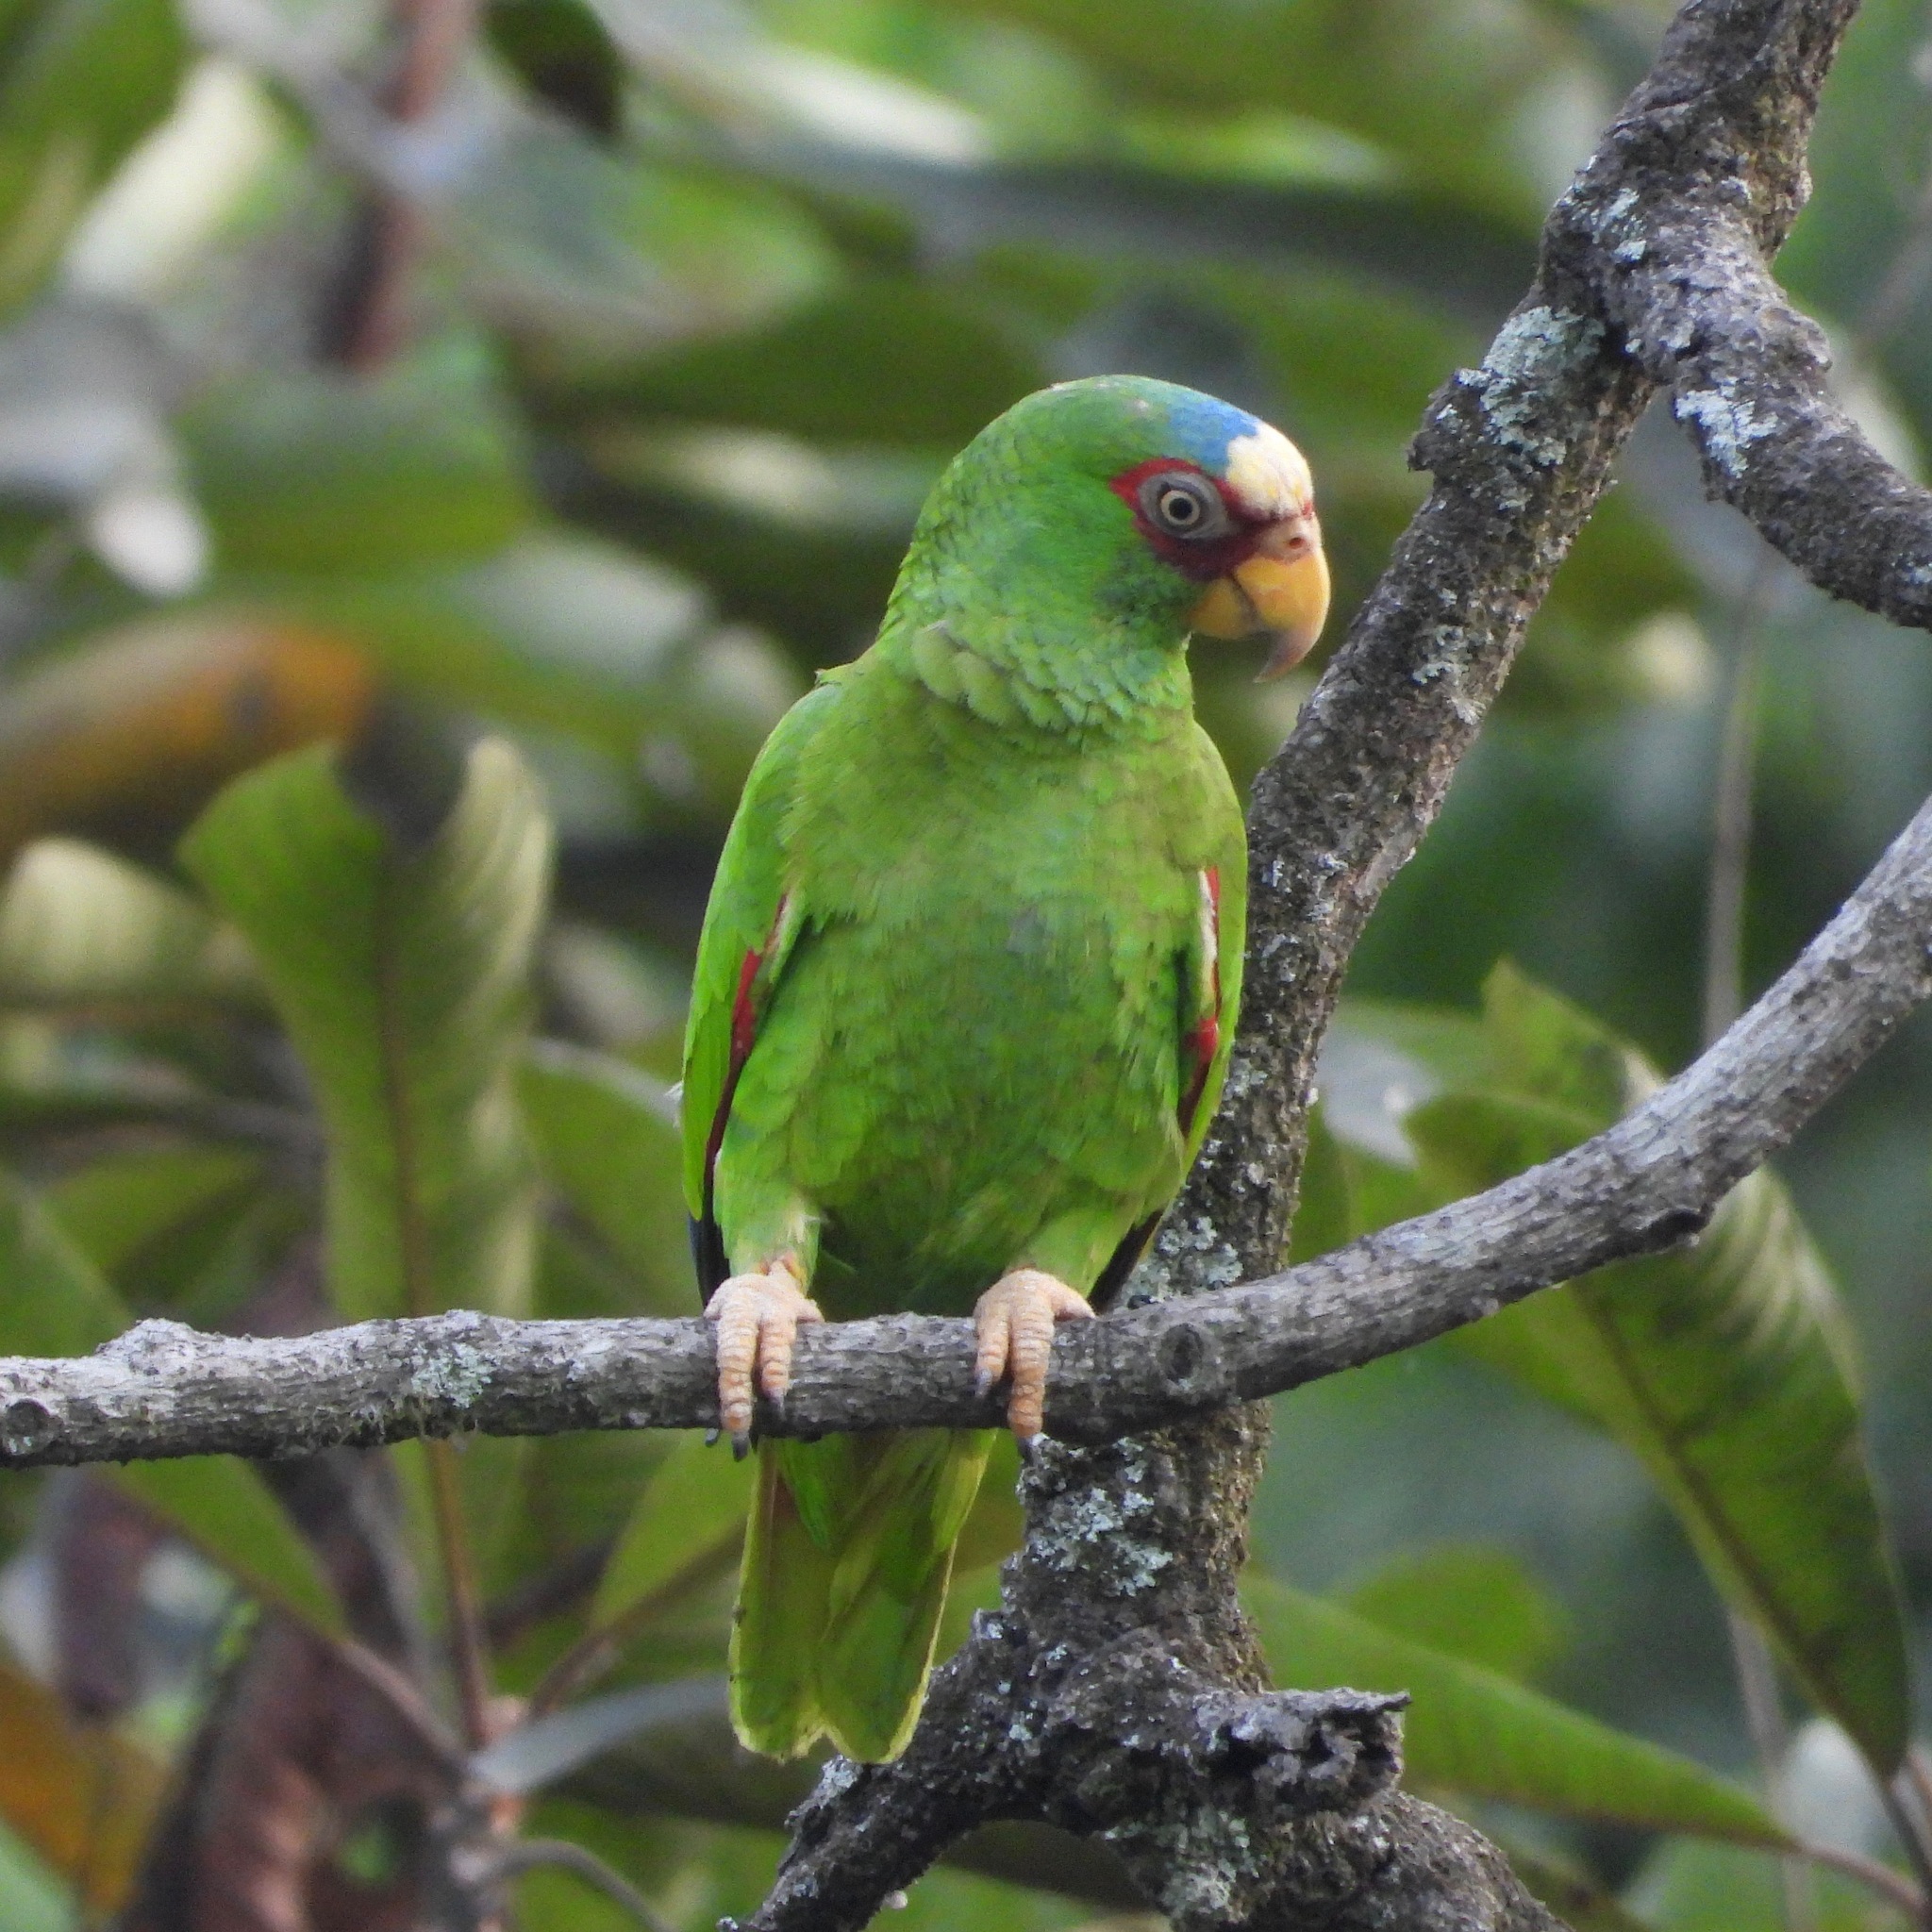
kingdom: Animalia
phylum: Chordata
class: Aves
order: Psittaciformes
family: Psittacidae
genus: Amazona
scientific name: Amazona albifrons
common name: White-fronted amazon
